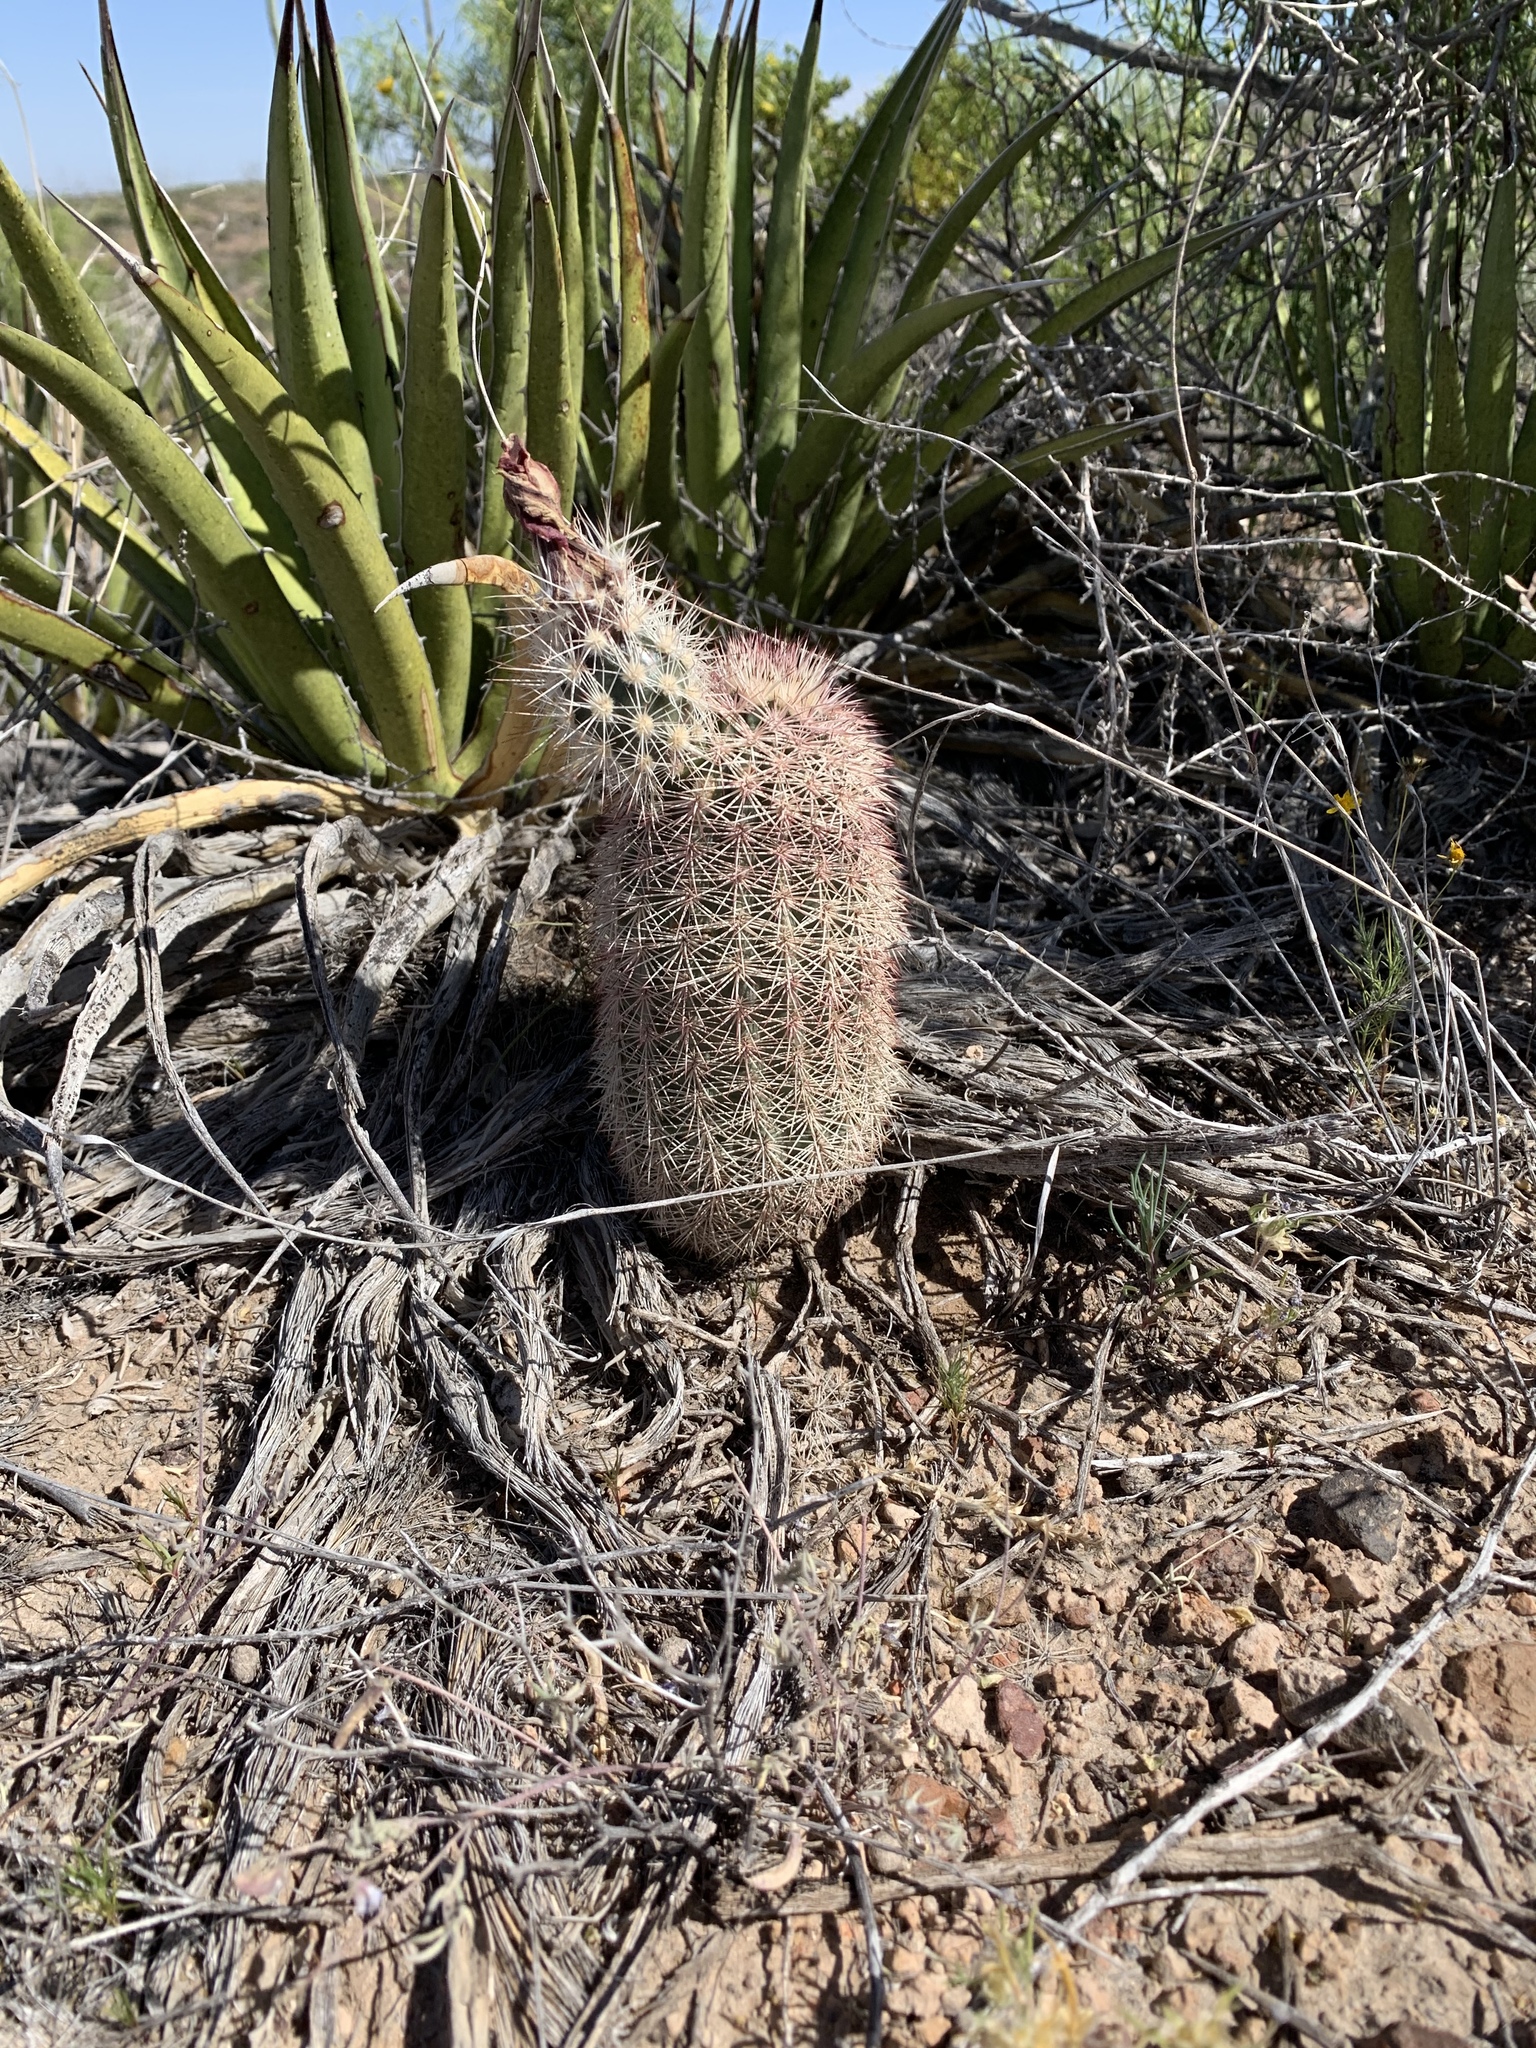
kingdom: Plantae
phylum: Tracheophyta
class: Magnoliopsida
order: Caryophyllales
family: Cactaceae
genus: Echinocereus
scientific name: Echinocereus dasyacanthus
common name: Spiny hedgehog cactus
